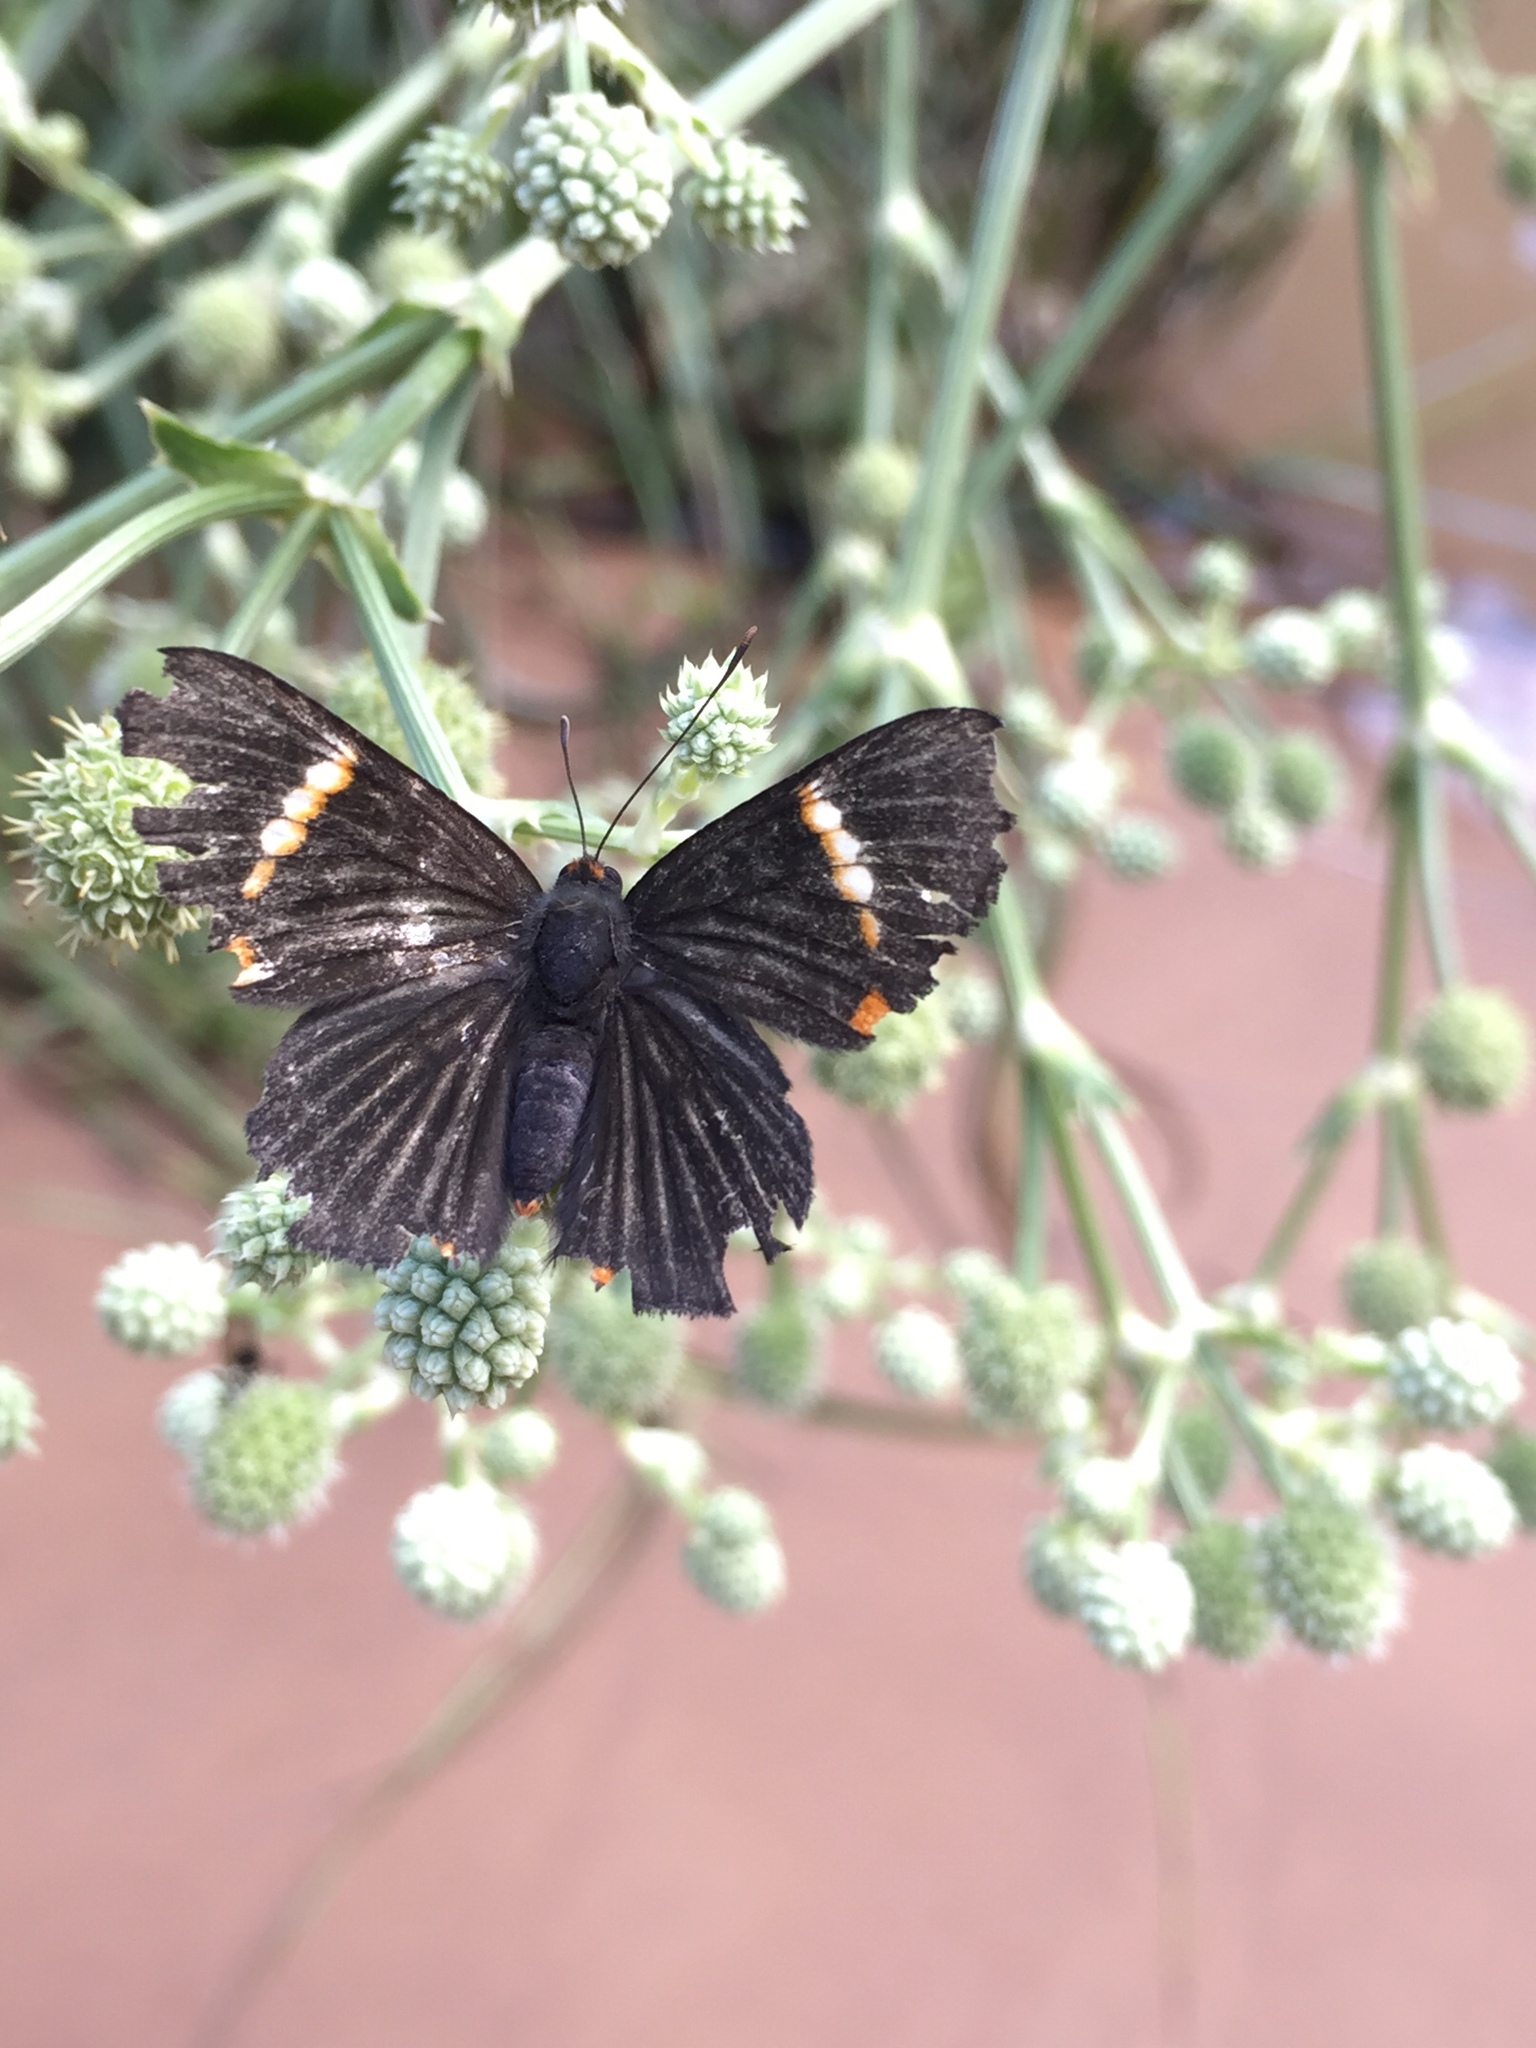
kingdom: Animalia
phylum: Arthropoda
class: Insecta
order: Lepidoptera
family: Riodinidae
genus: Riodina
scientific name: Riodina lycisca
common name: Lycisca metalmark
